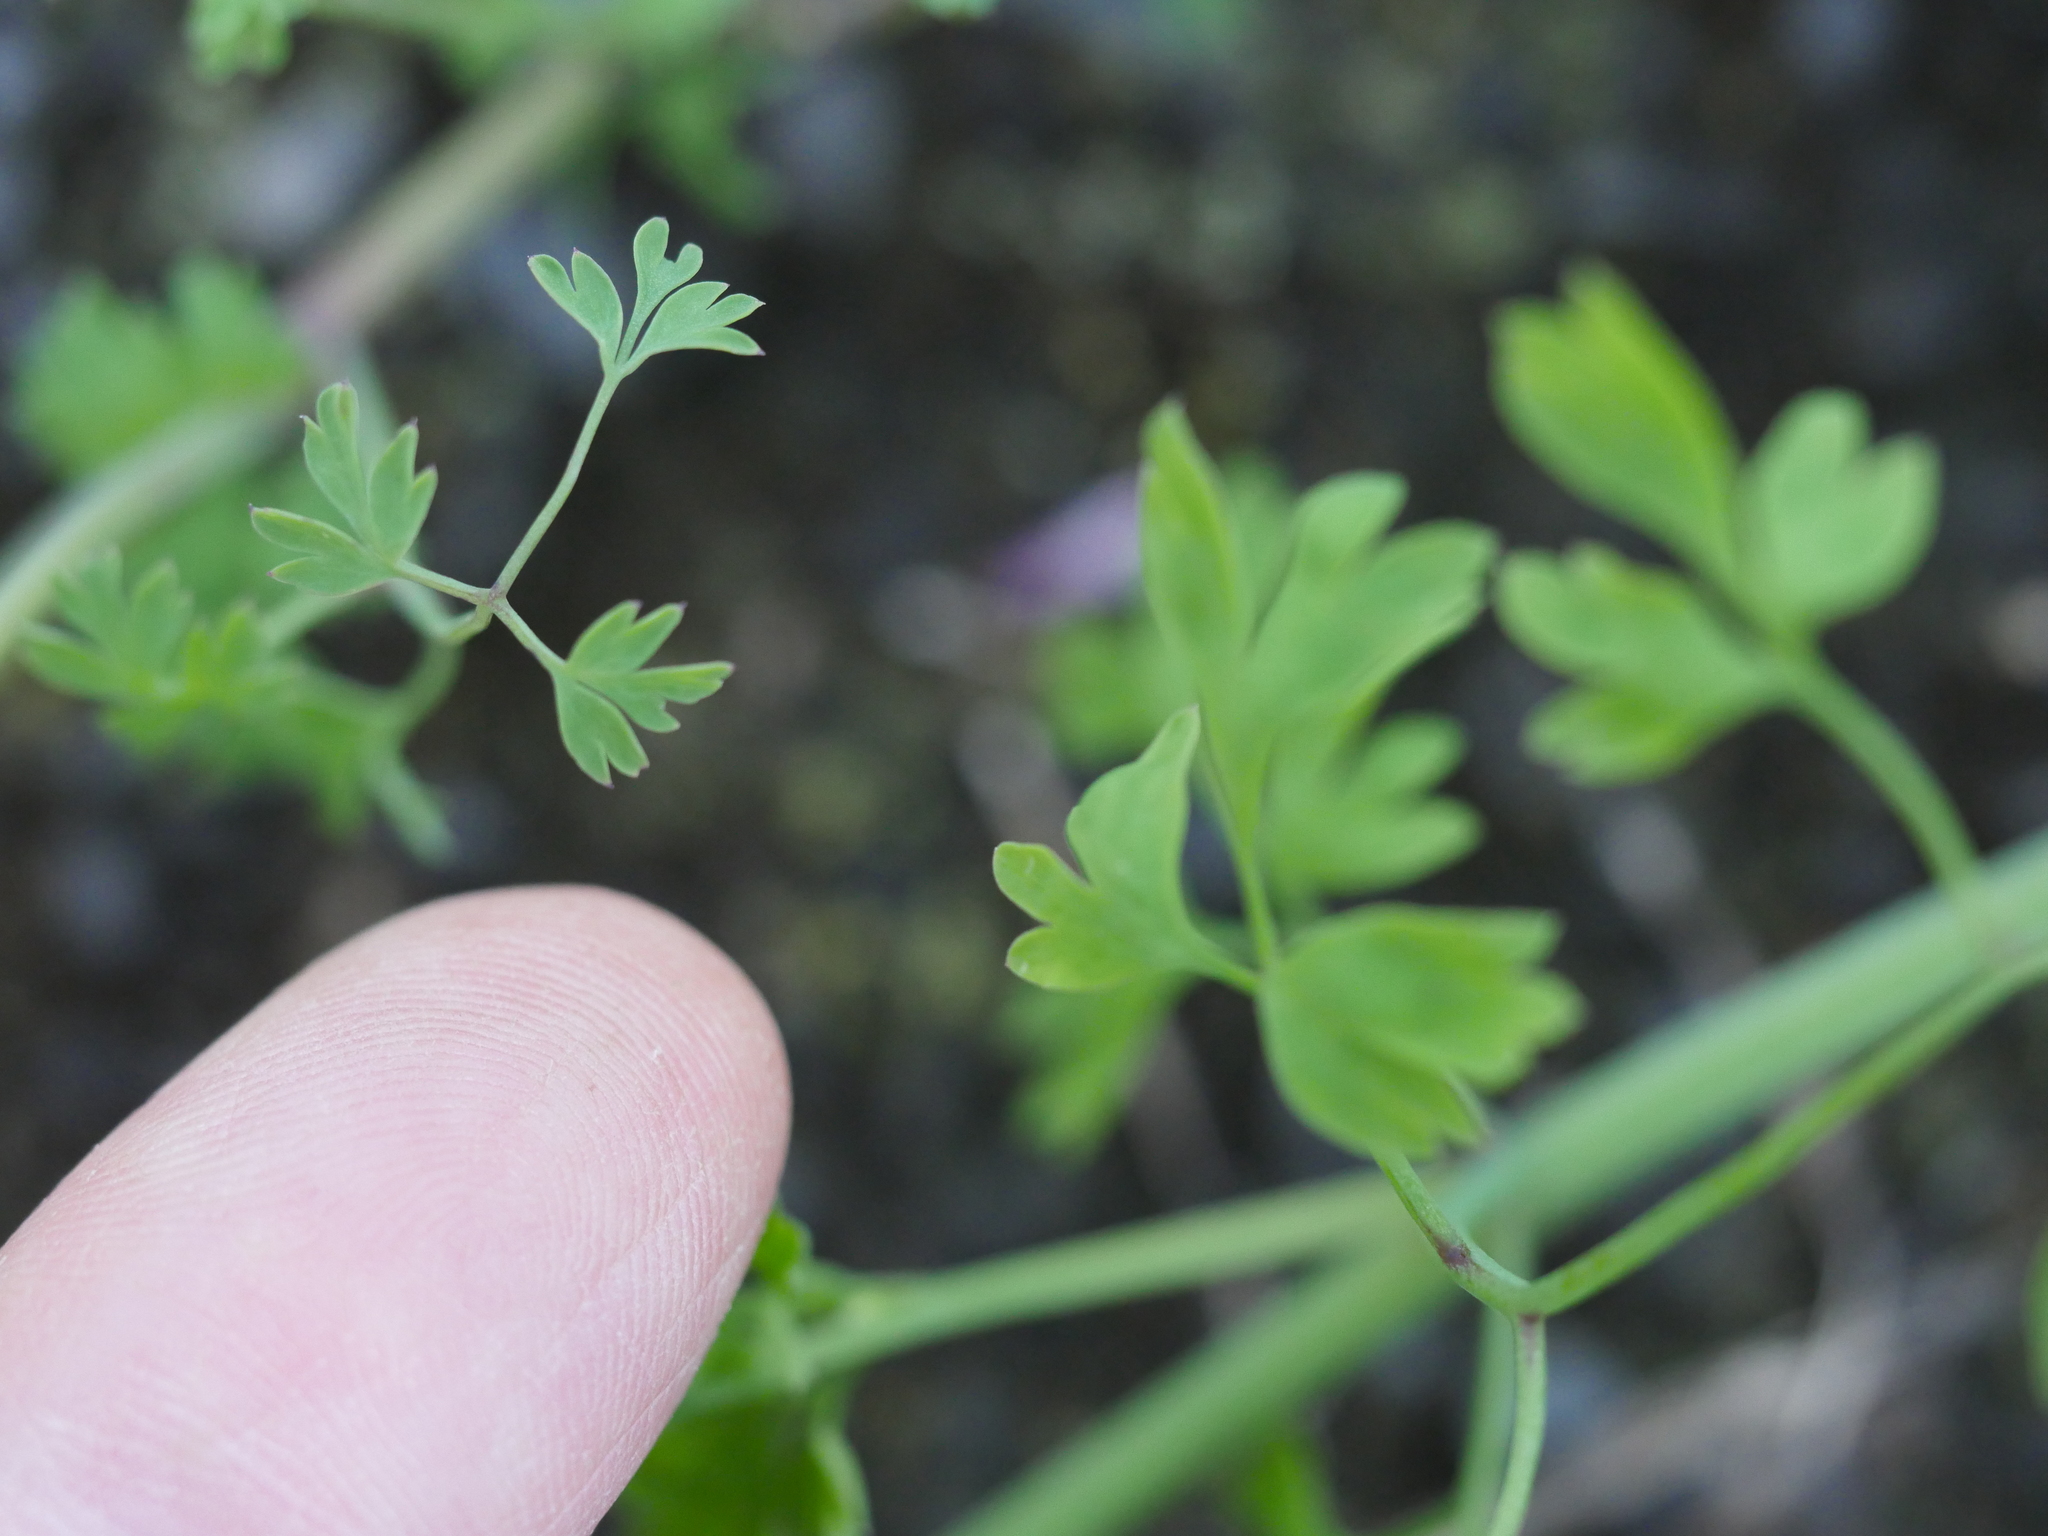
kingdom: Plantae
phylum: Tracheophyta
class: Magnoliopsida
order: Ranunculales
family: Papaveraceae
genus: Fumaria
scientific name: Fumaria muralis
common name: Common ramping-fumitory
